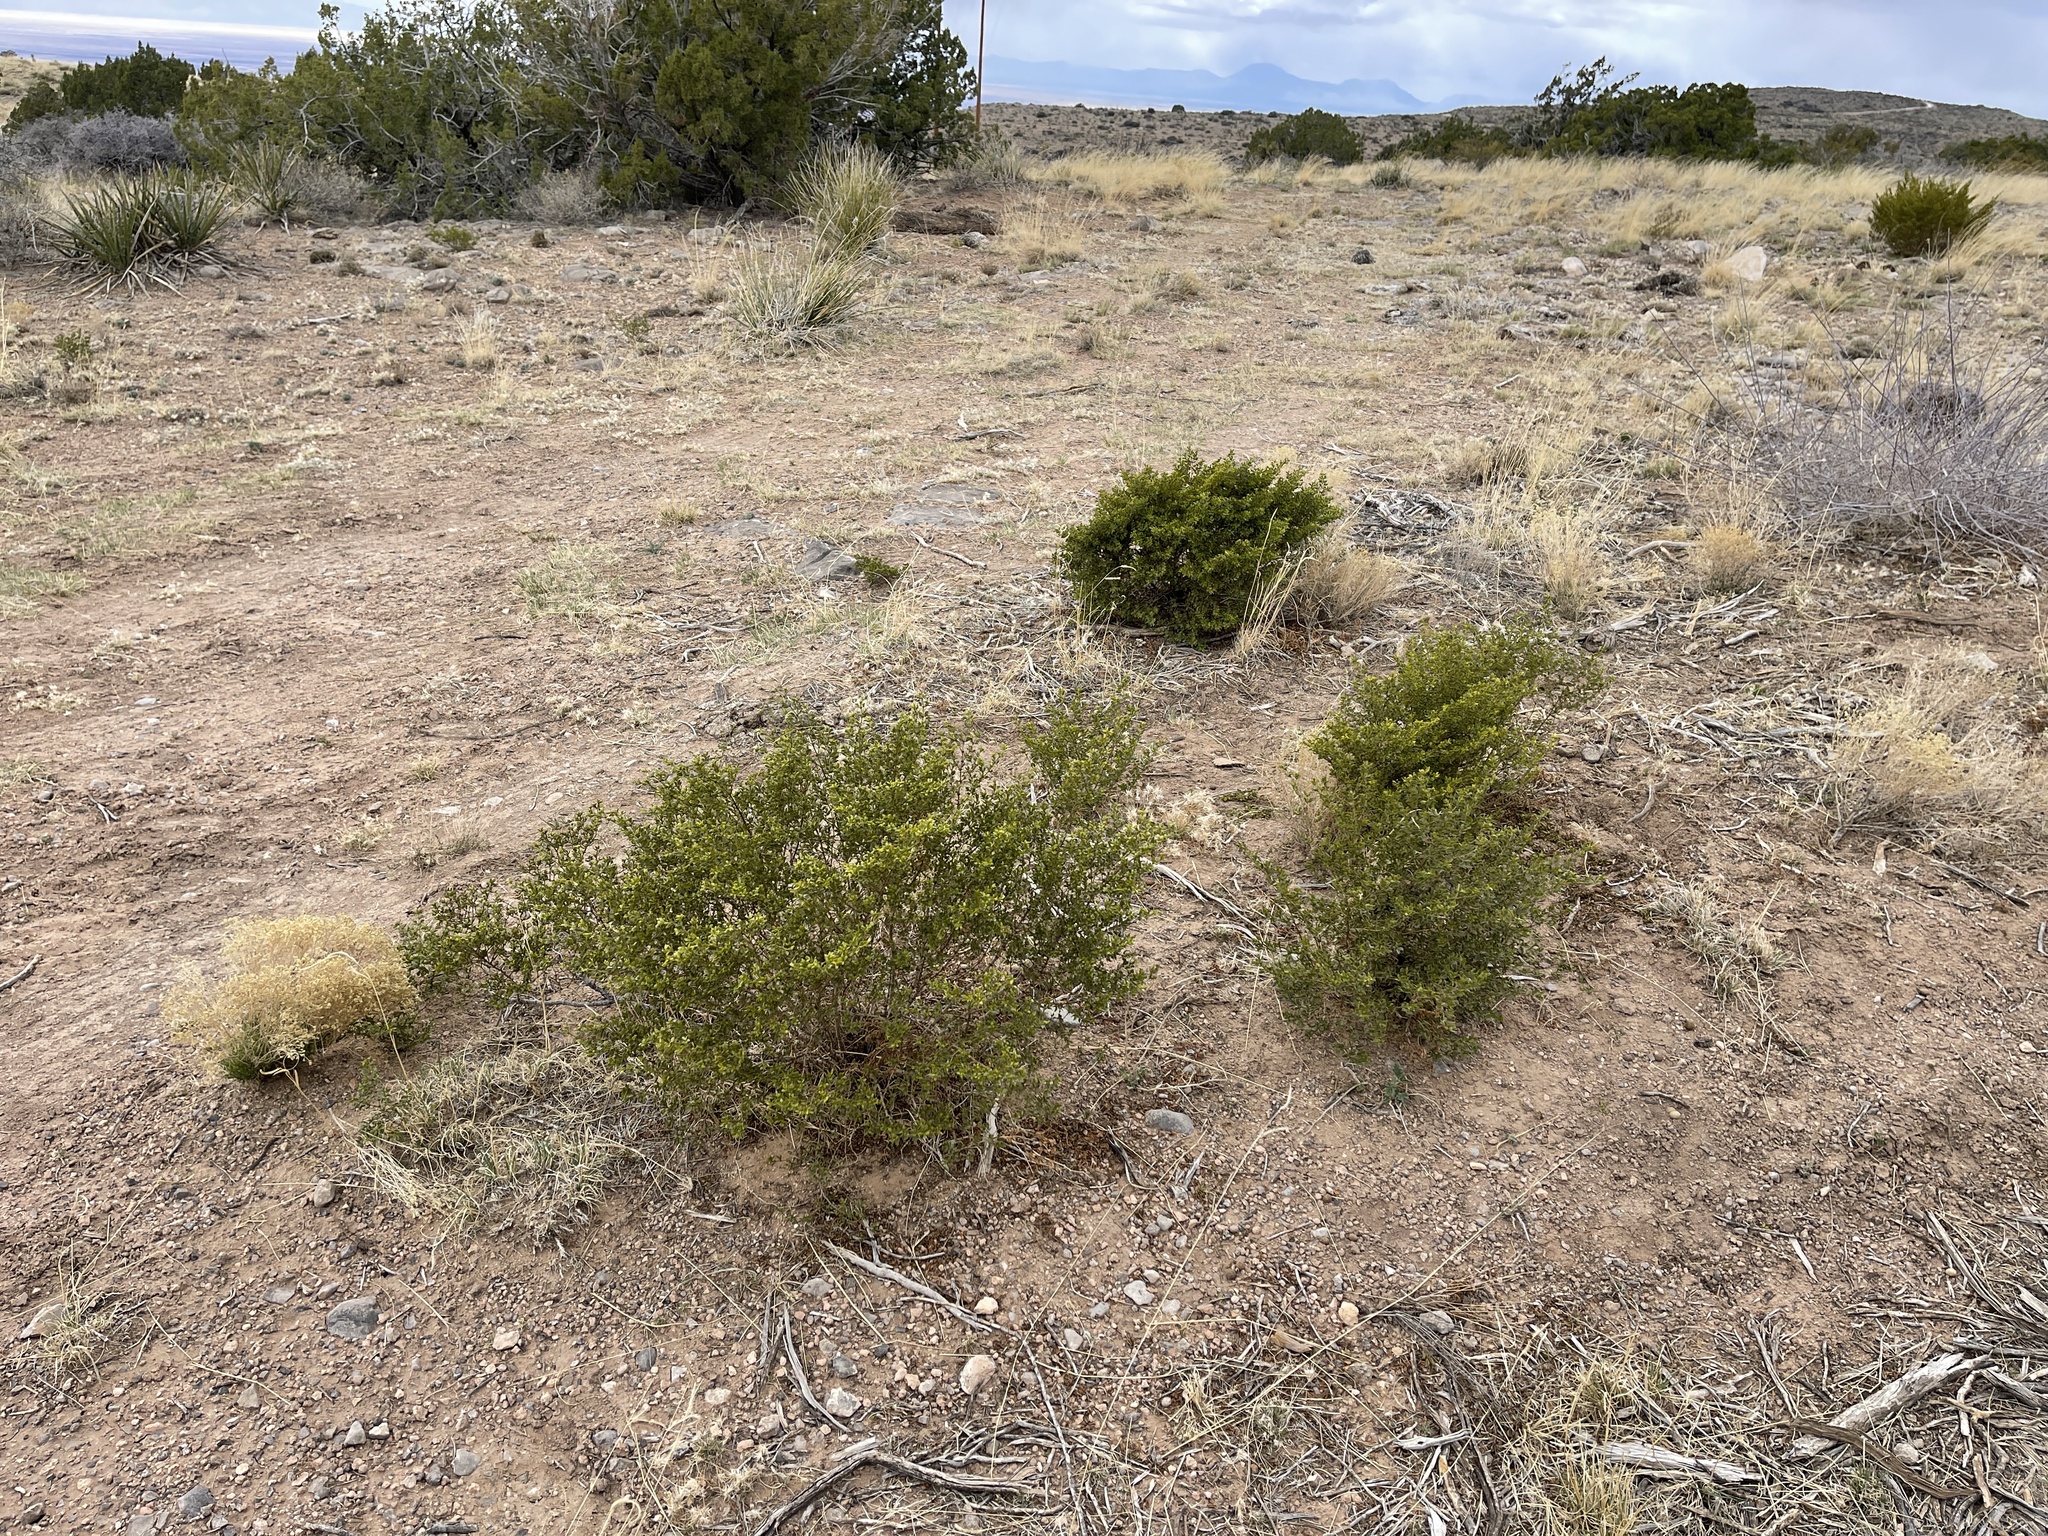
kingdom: Plantae
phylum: Tracheophyta
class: Magnoliopsida
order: Zygophyllales
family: Zygophyllaceae
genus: Larrea
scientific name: Larrea tridentata
